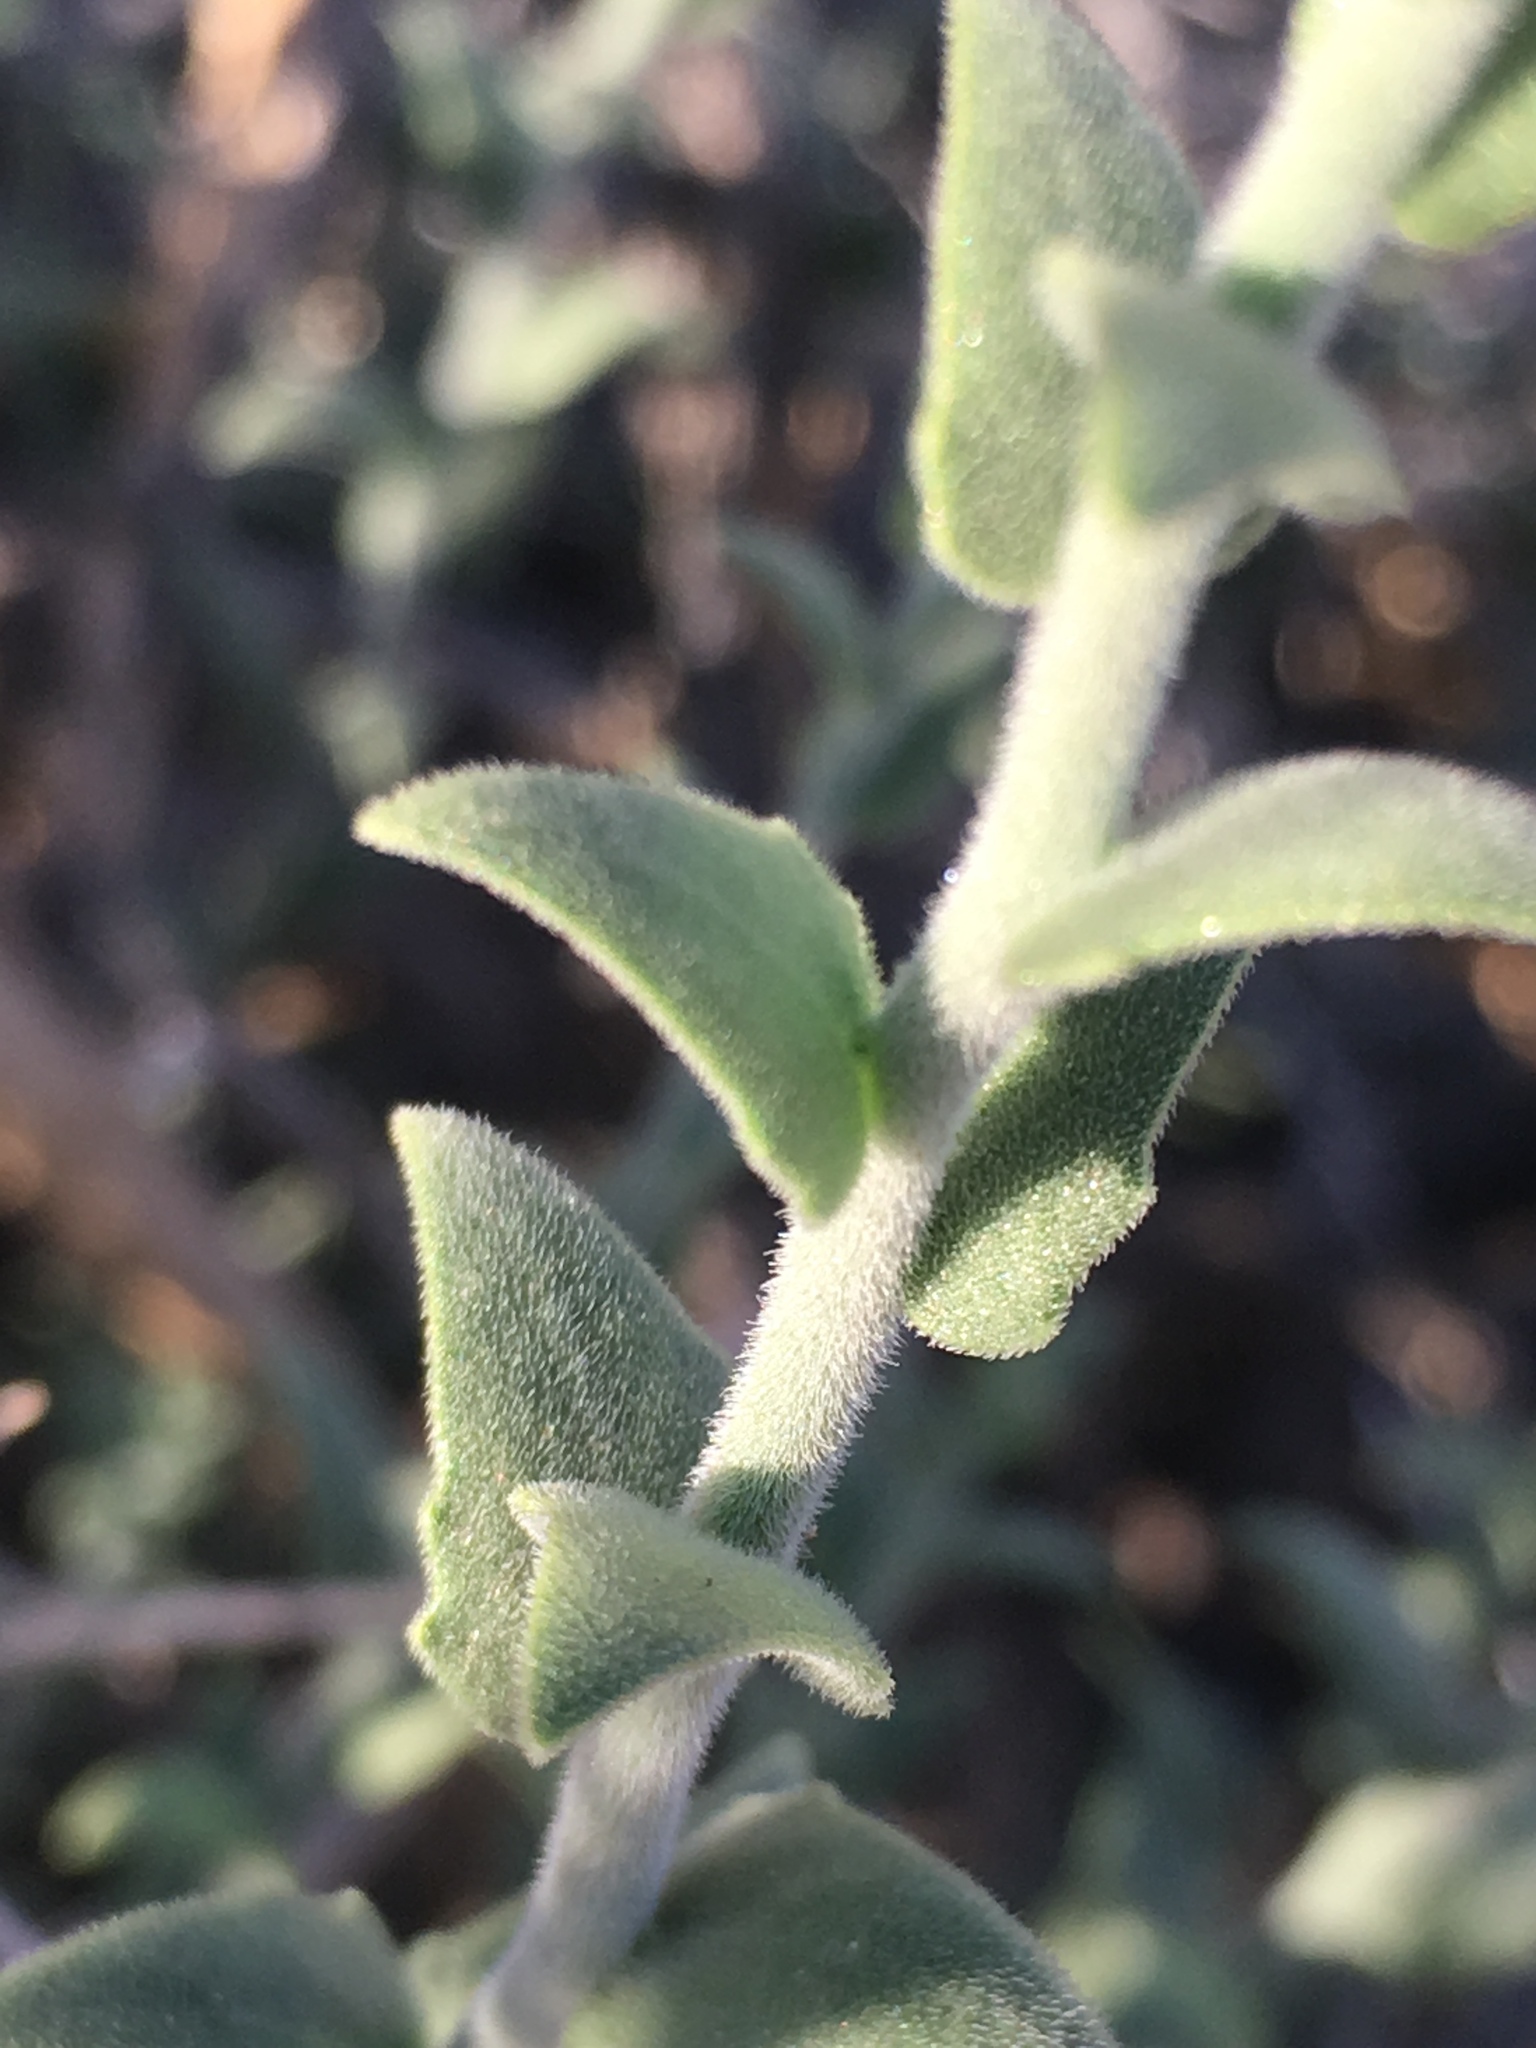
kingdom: Plantae
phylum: Tracheophyta
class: Magnoliopsida
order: Cornales
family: Loasaceae
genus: Petalonyx
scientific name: Petalonyx thurberi
